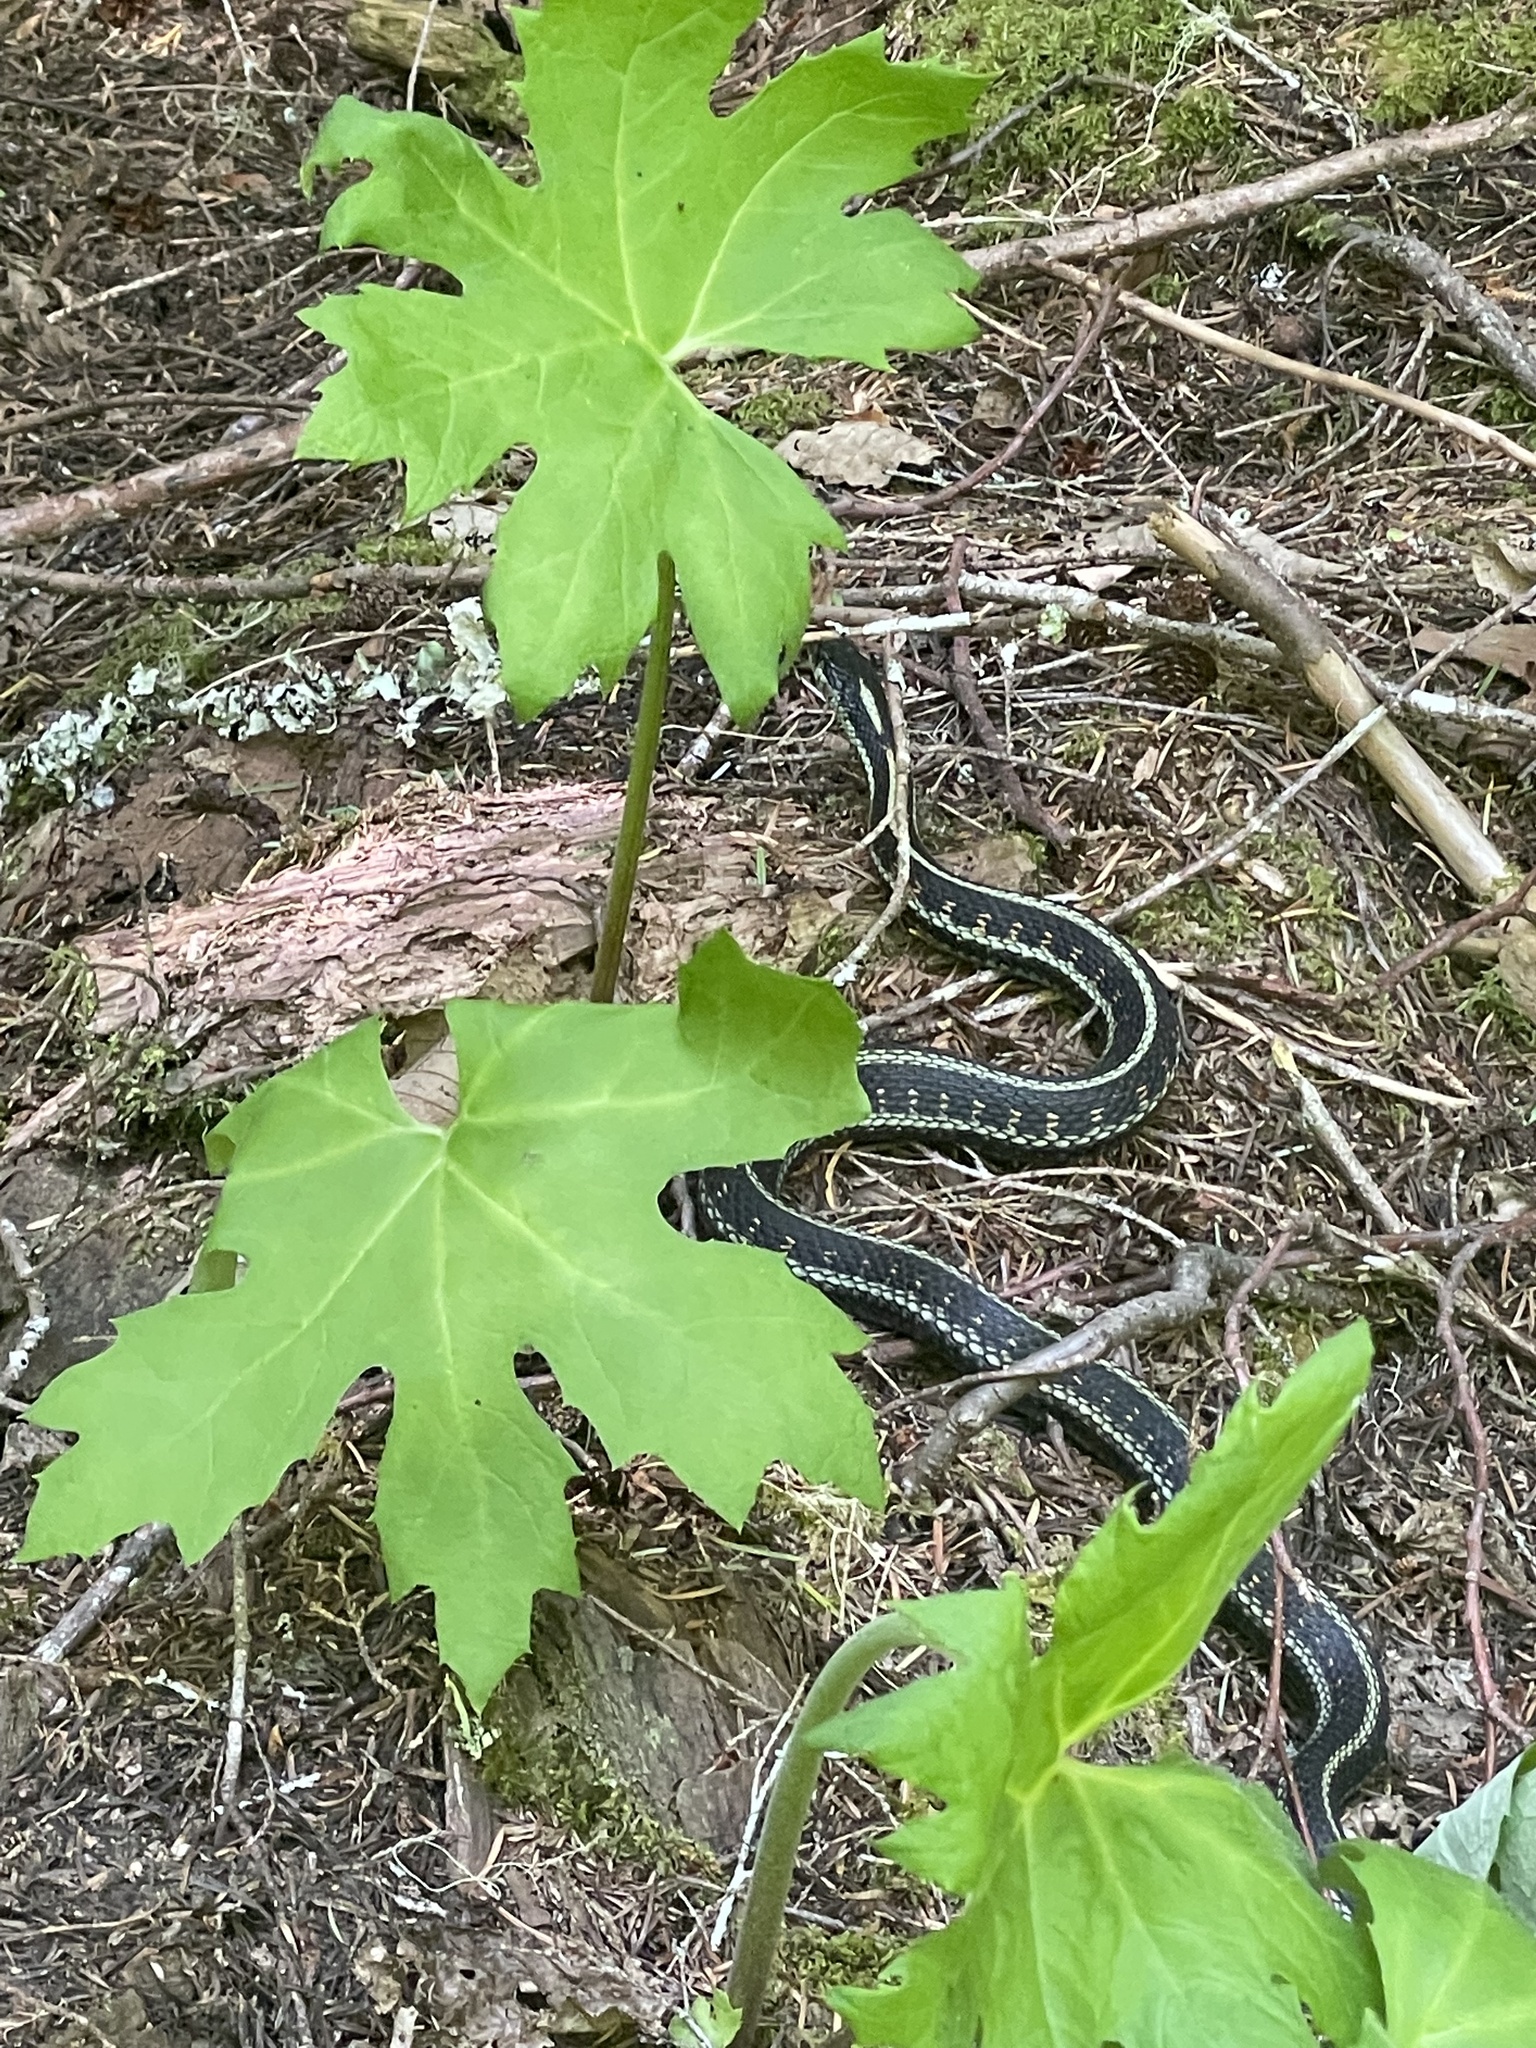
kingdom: Animalia
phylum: Chordata
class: Squamata
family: Colubridae
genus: Thamnophis
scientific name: Thamnophis sirtalis
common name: Common garter snake
